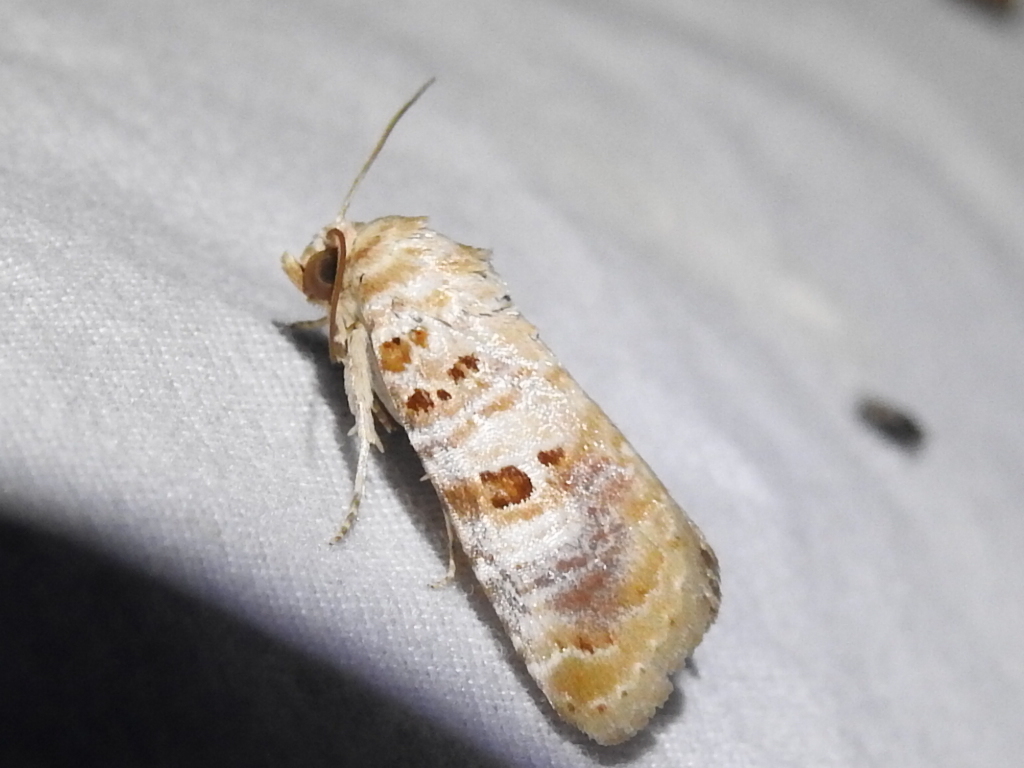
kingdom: Animalia
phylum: Arthropoda
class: Insecta
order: Lepidoptera
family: Noctuidae
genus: Diastema
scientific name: Diastema tigris
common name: Lantana moth
